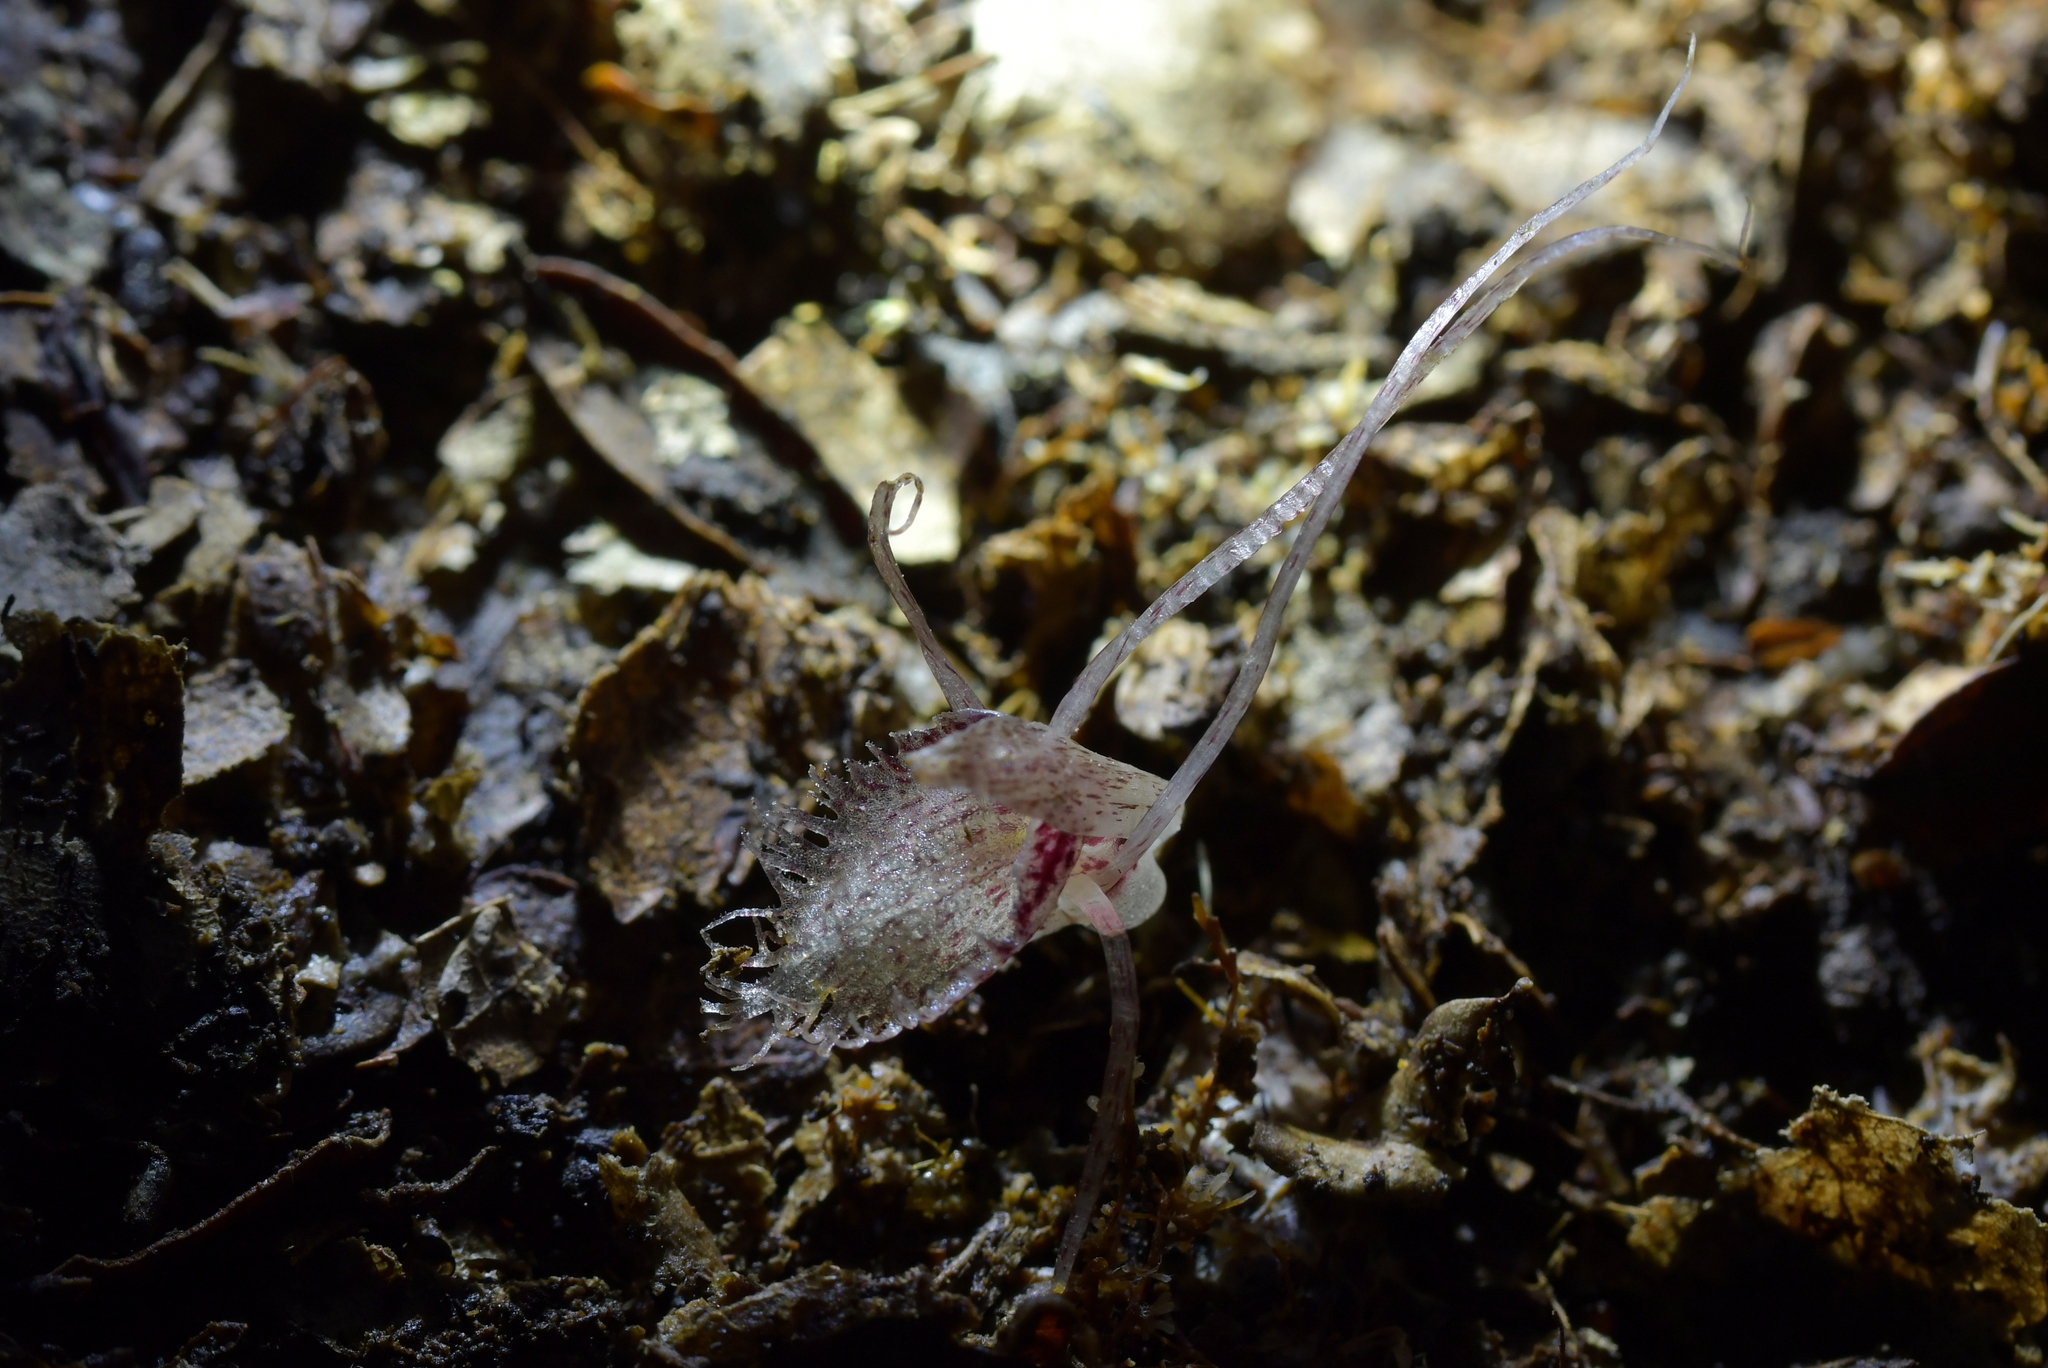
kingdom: Plantae
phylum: Tracheophyta
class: Liliopsida
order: Asparagales
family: Orchidaceae
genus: Corybas
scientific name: Corybas cryptanthus
